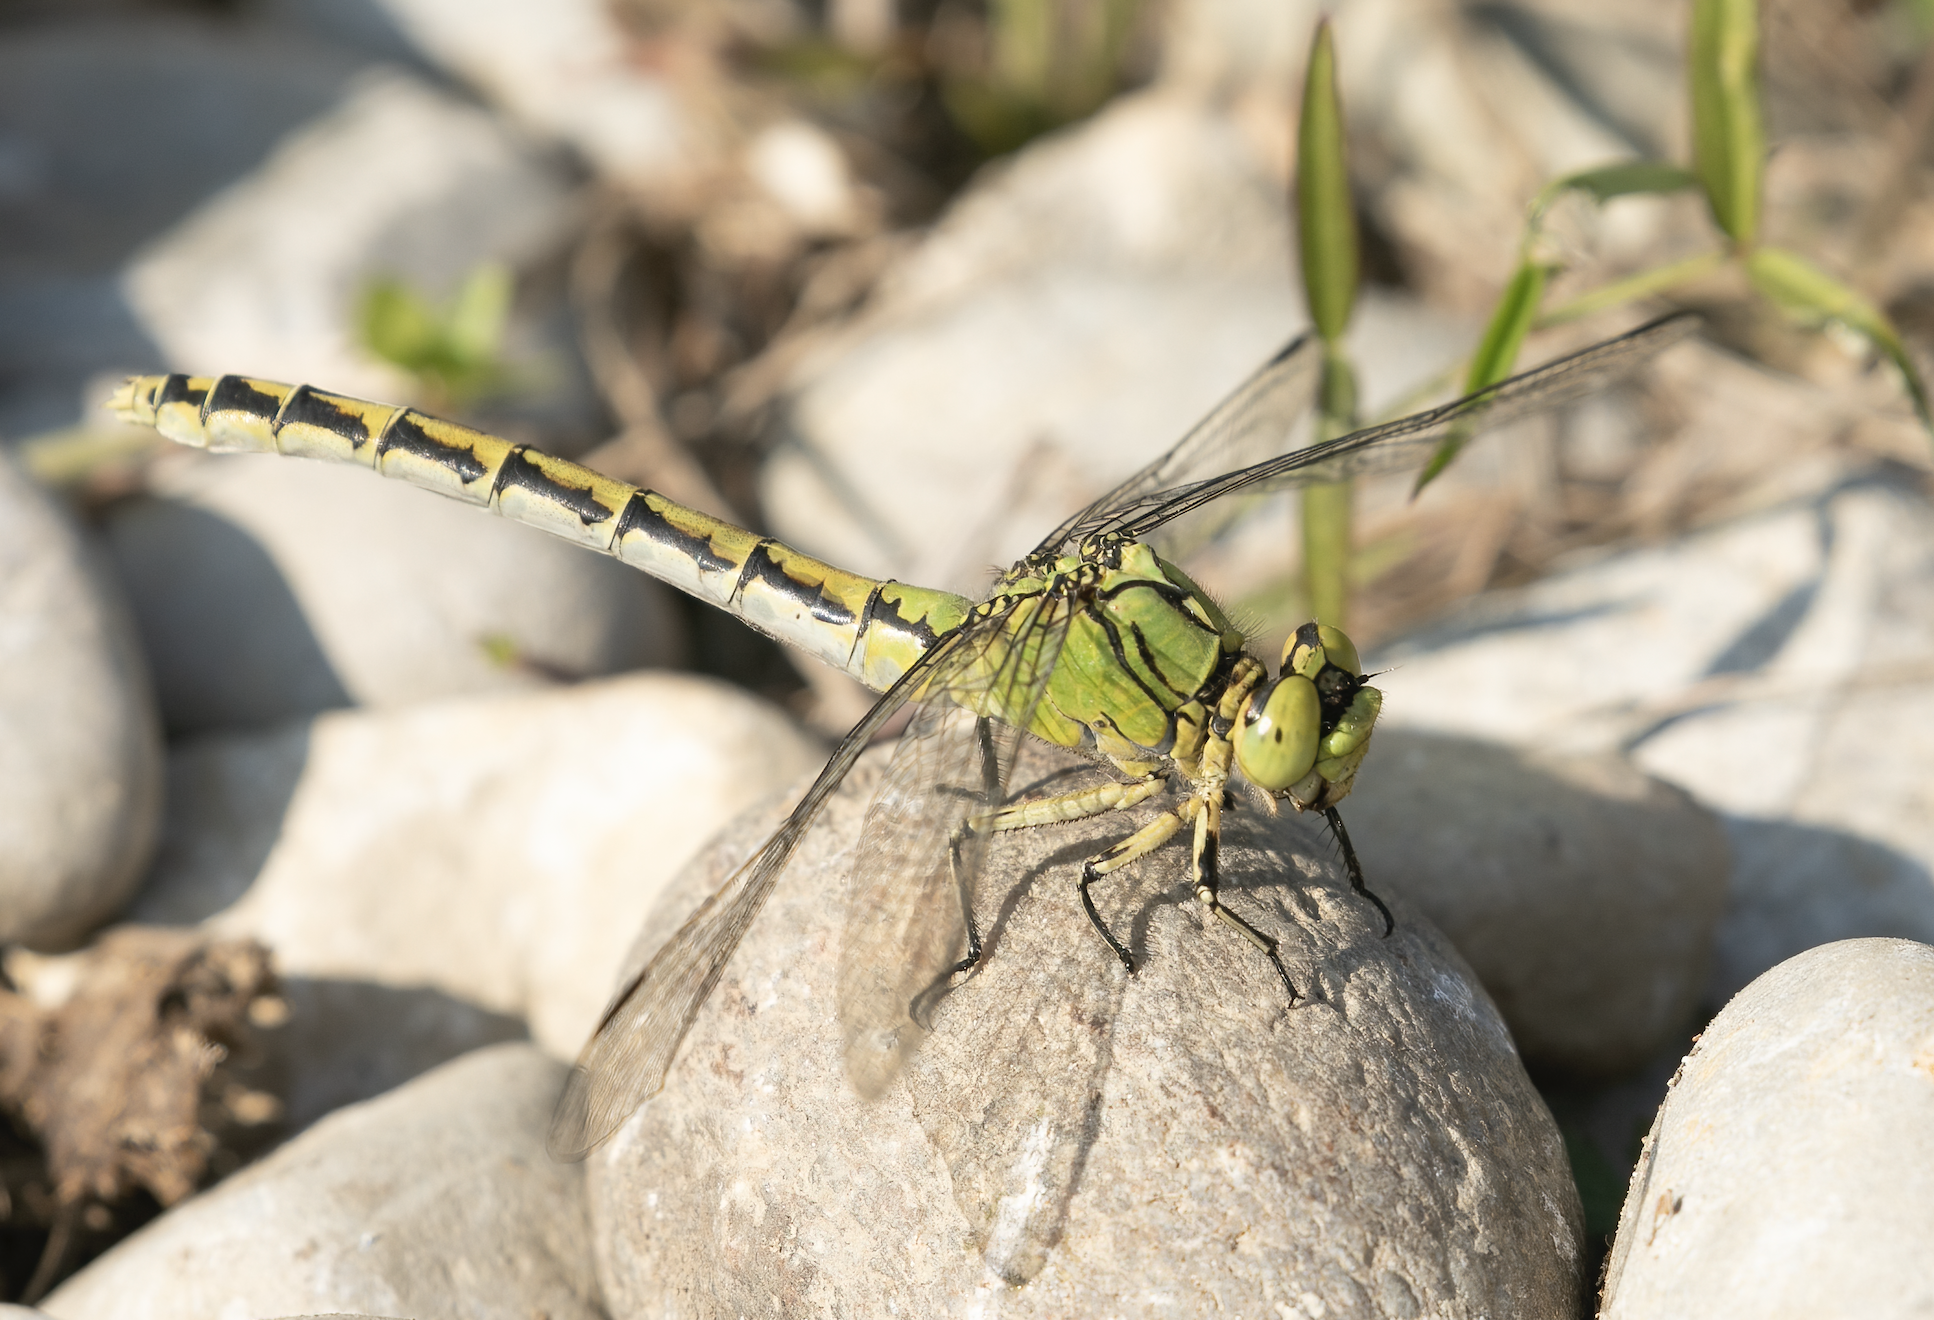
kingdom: Animalia
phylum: Arthropoda
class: Insecta
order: Odonata
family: Gomphidae
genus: Ophiogomphus
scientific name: Ophiogomphus cecilia
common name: Green snaketail
